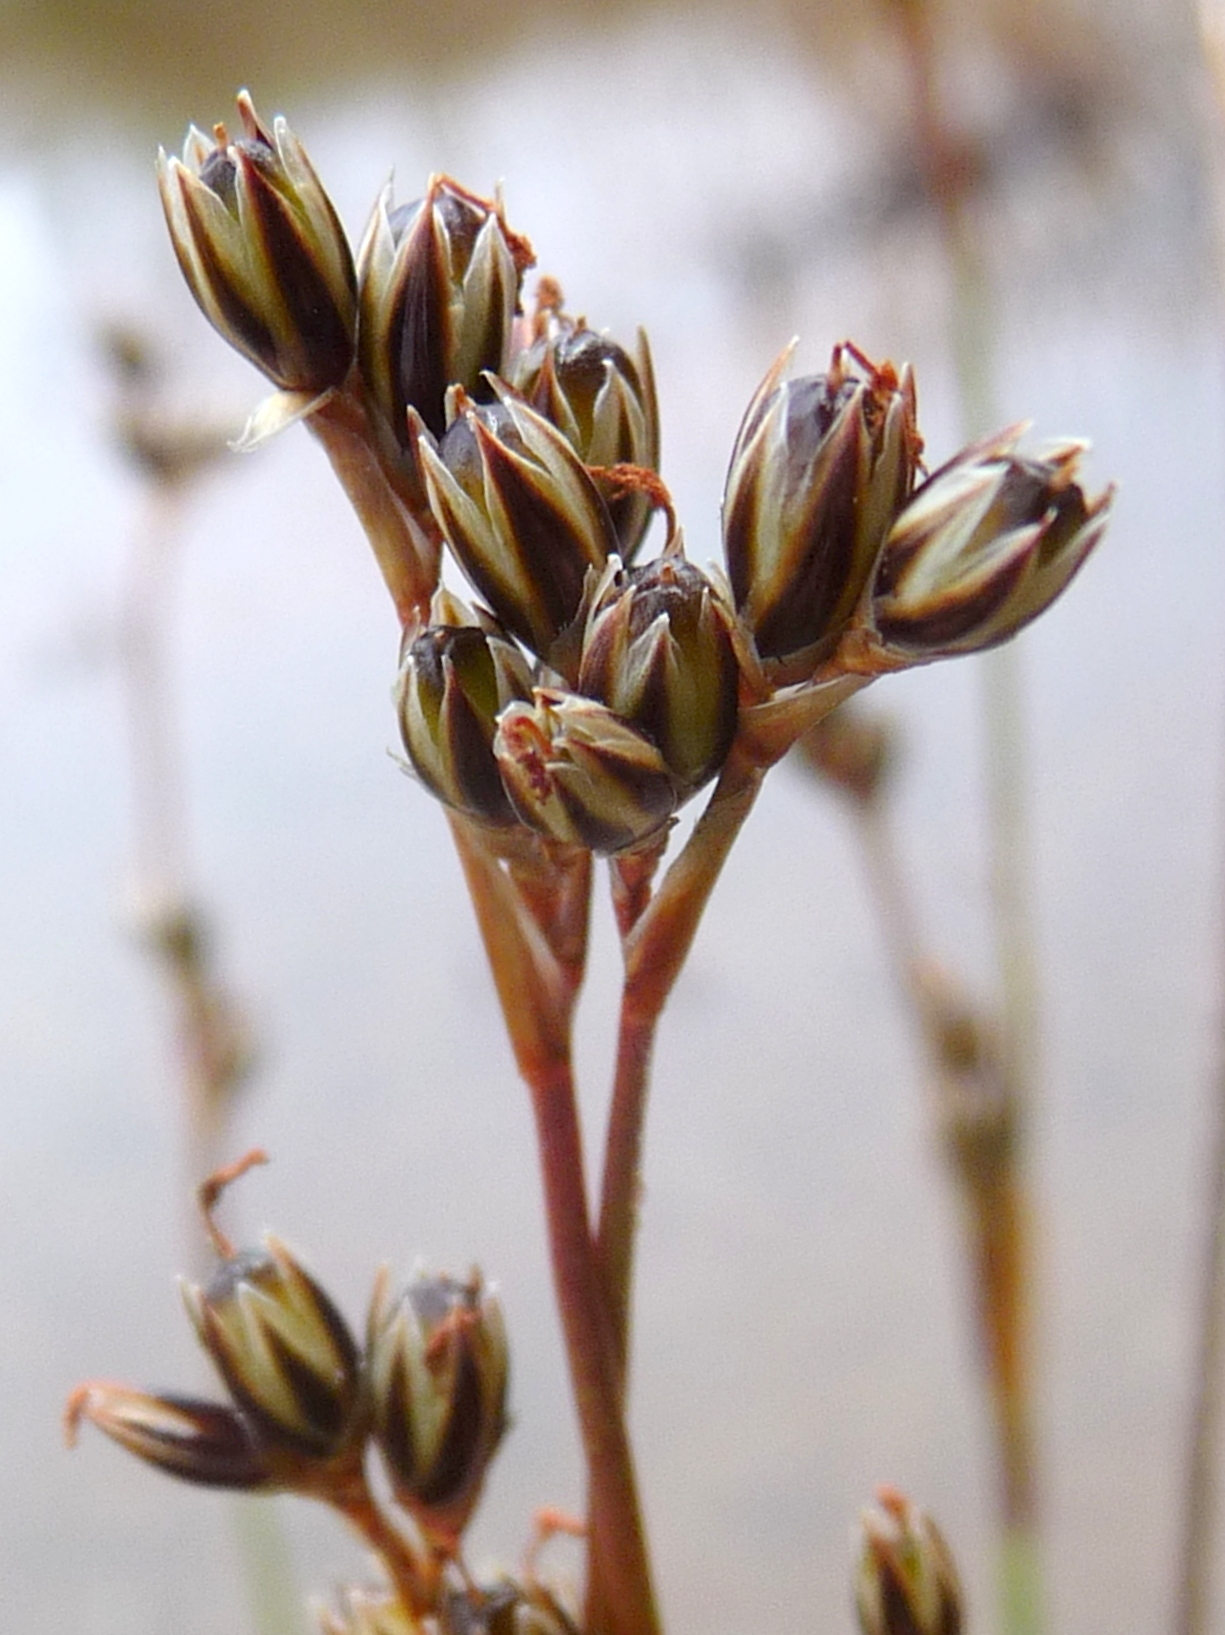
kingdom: Plantae
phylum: Tracheophyta
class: Liliopsida
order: Poales
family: Juncaceae
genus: Juncus
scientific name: Juncus squarrosus
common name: Heath rush
